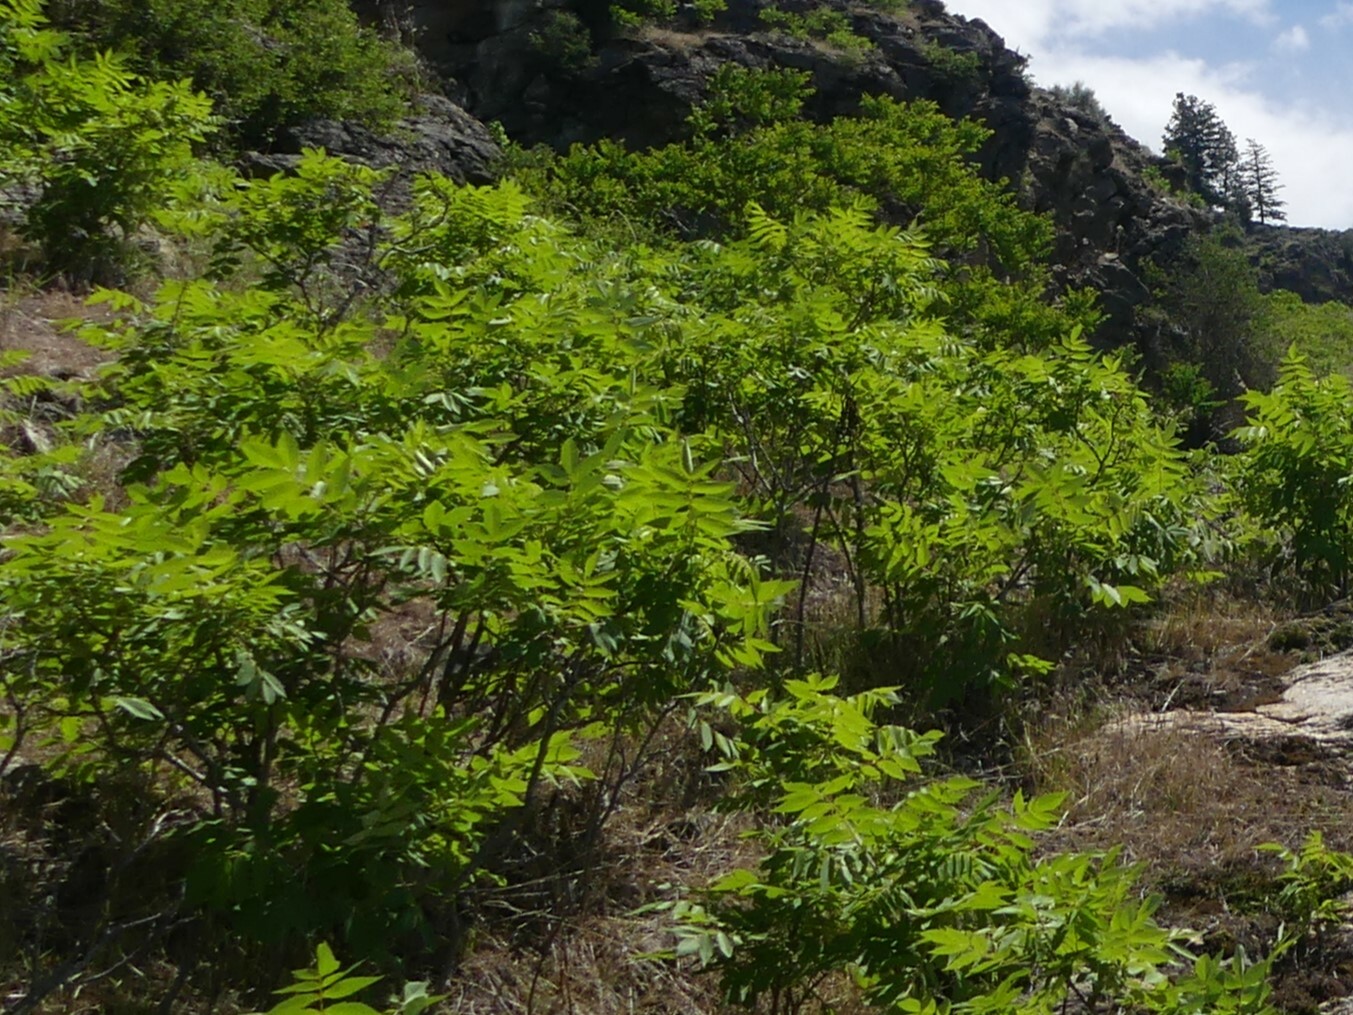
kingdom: Plantae
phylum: Tracheophyta
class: Magnoliopsida
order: Sapindales
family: Anacardiaceae
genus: Rhus
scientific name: Rhus glabra
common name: Scarlet sumac
